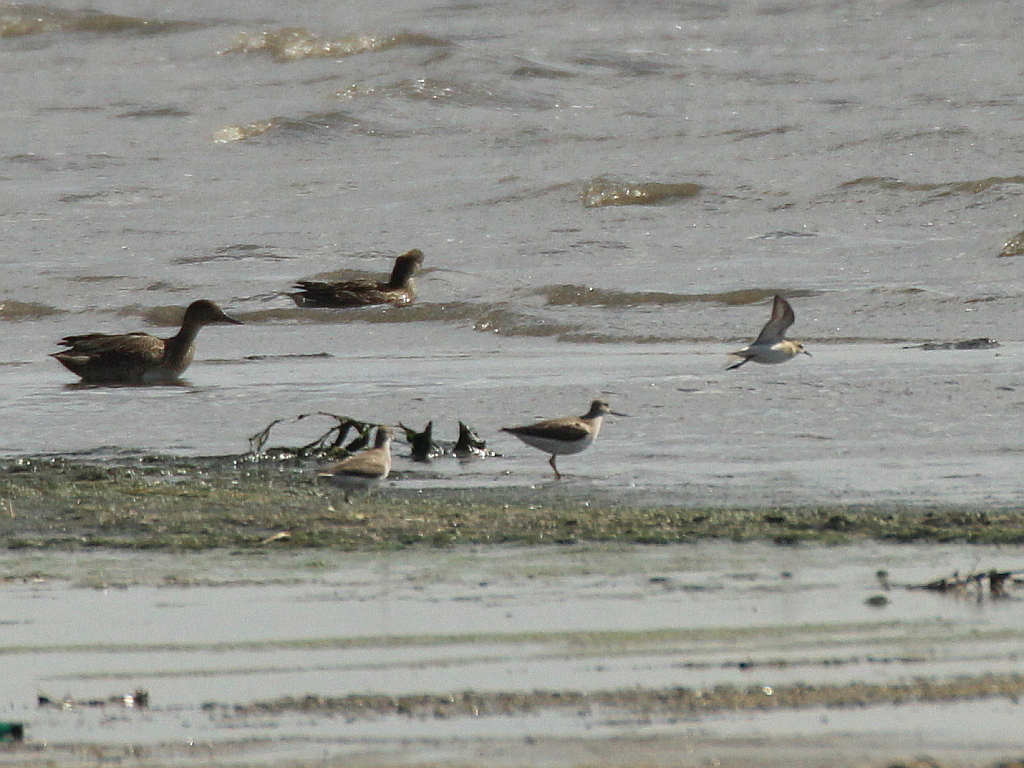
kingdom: Animalia
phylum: Chordata
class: Aves
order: Charadriiformes
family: Scolopacidae
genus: Xenus
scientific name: Xenus cinereus
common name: Terek sandpiper
